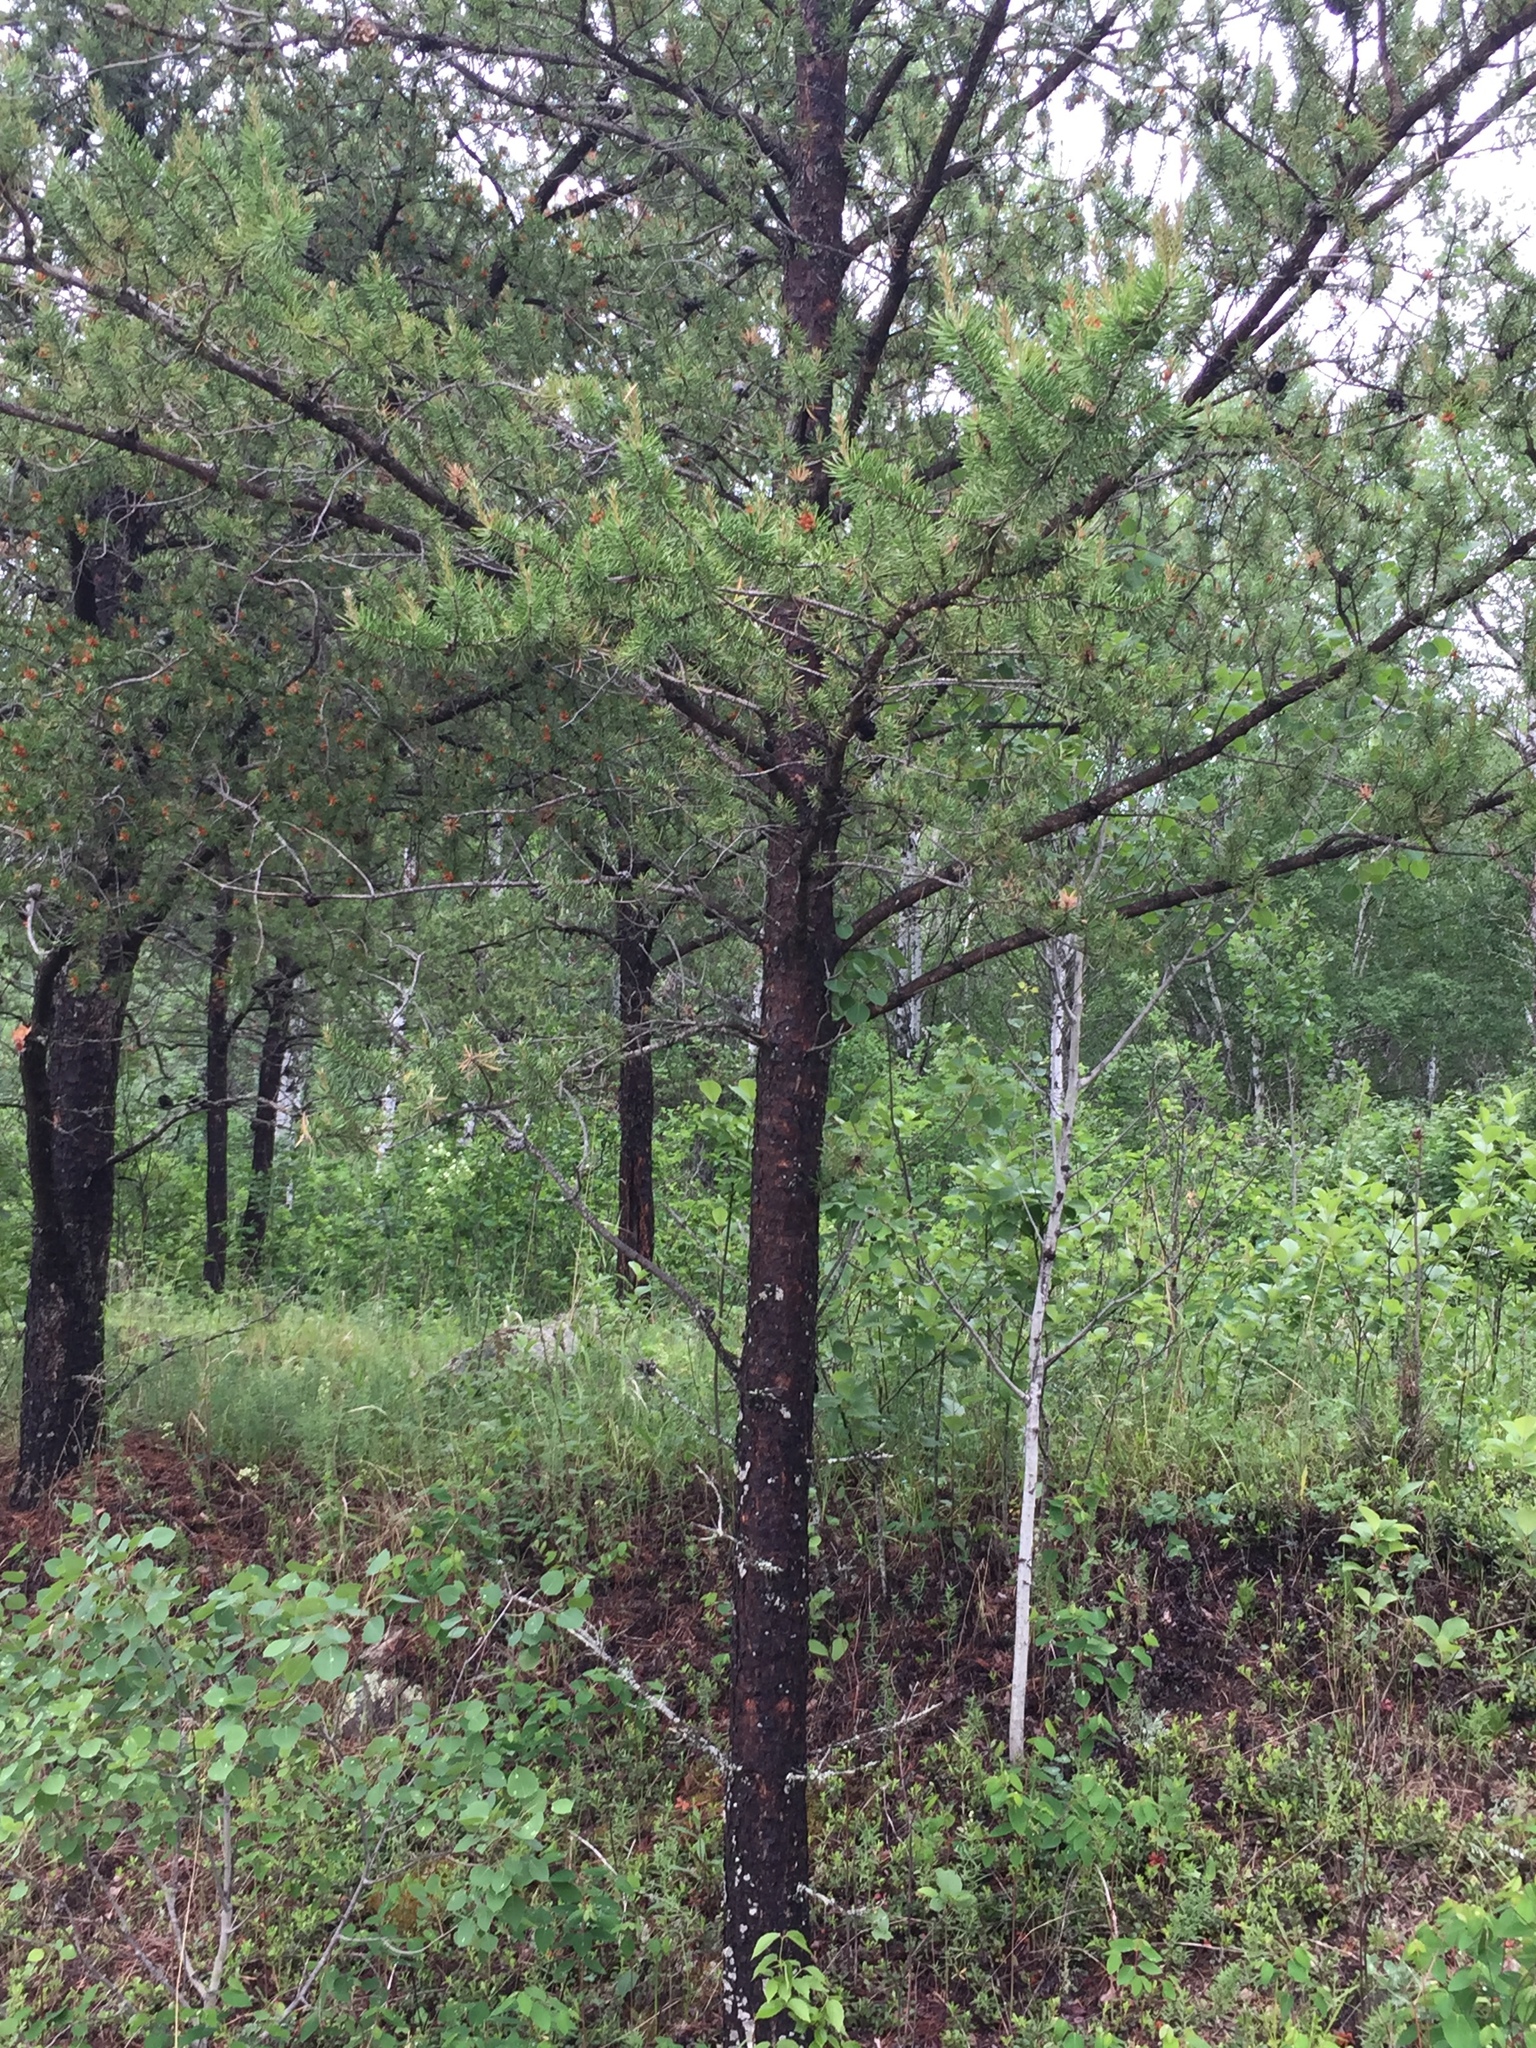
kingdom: Plantae
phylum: Tracheophyta
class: Pinopsida
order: Pinales
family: Pinaceae
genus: Pinus
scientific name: Pinus banksiana
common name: Jack pine
